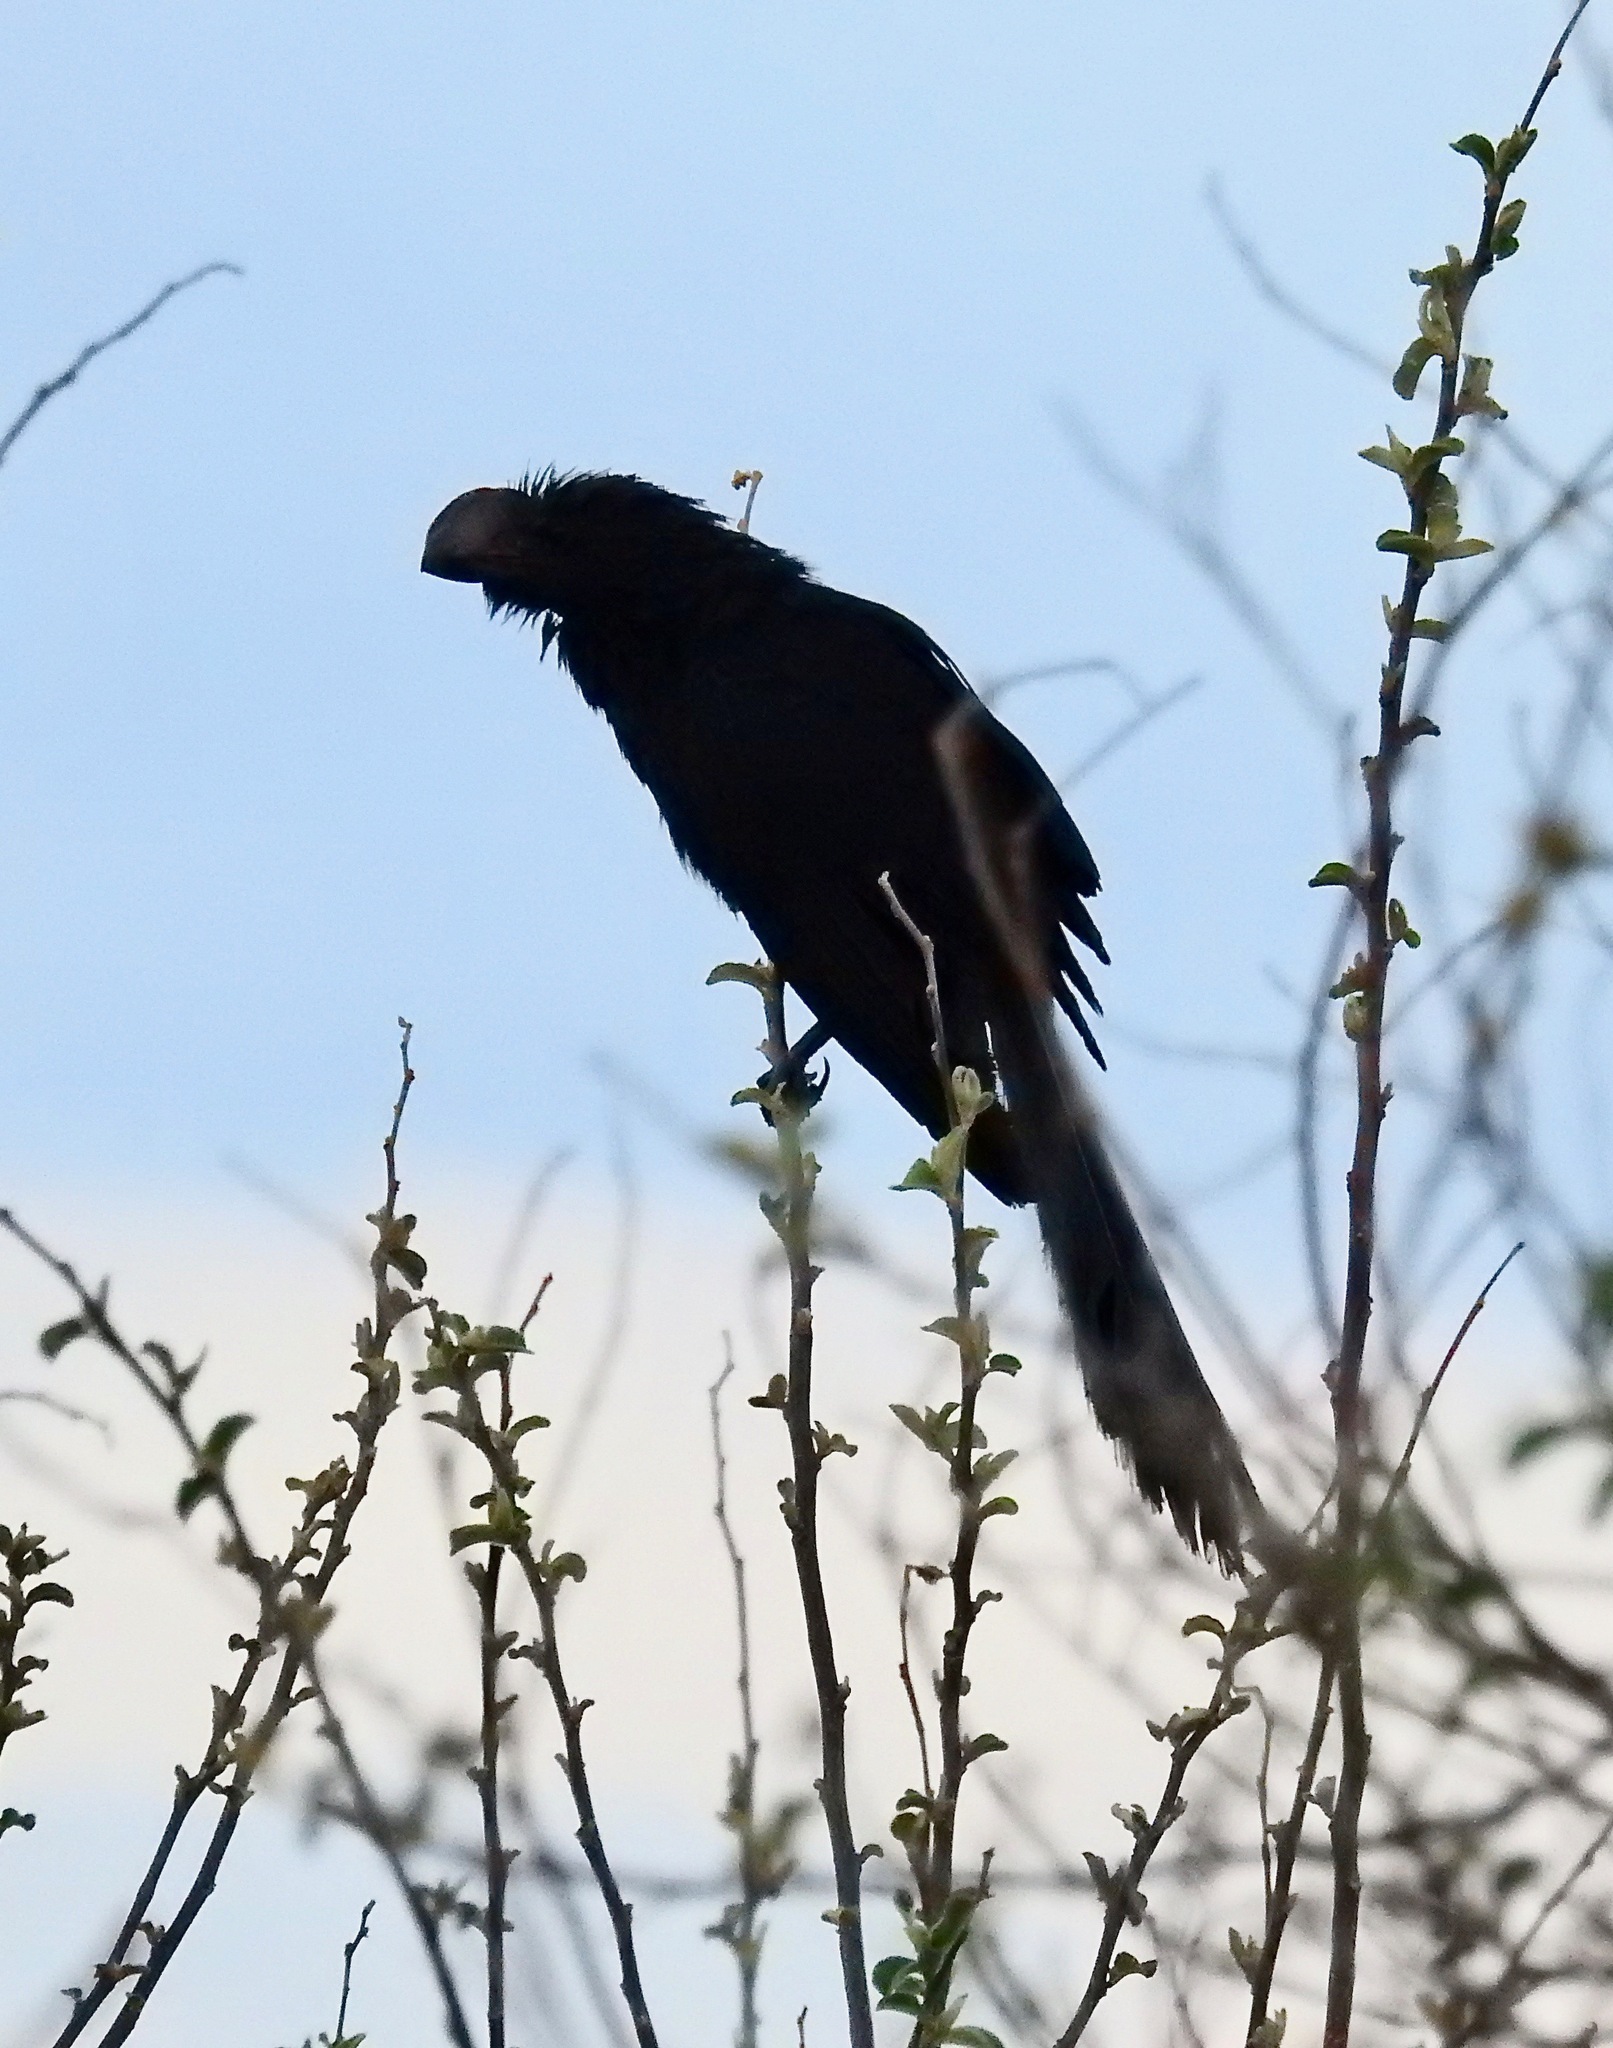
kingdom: Animalia
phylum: Chordata
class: Aves
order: Cuculiformes
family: Cuculidae
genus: Crotophaga
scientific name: Crotophaga ani
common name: Smooth-billed ani
